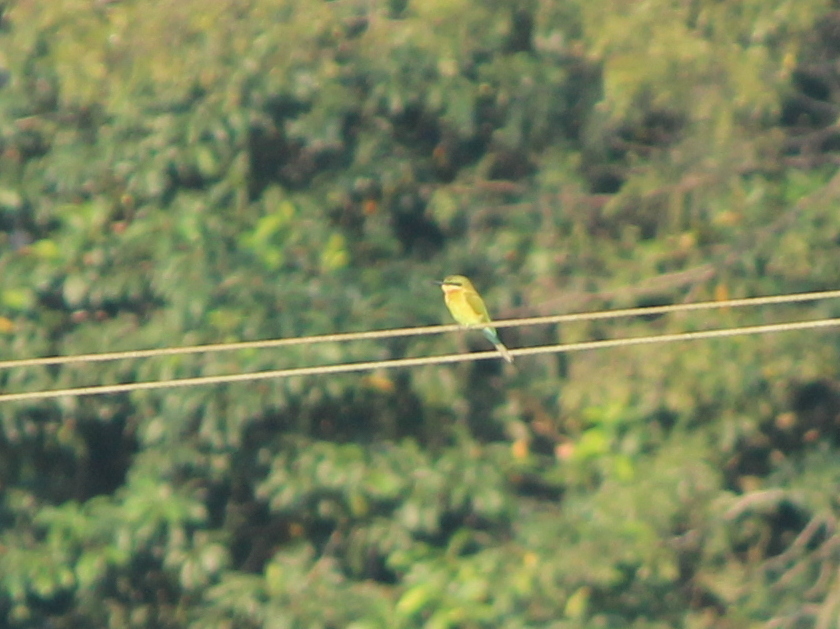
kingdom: Animalia
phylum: Chordata
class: Aves
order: Coraciiformes
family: Meropidae
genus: Merops
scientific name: Merops philippinus
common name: Blue-tailed bee-eater
